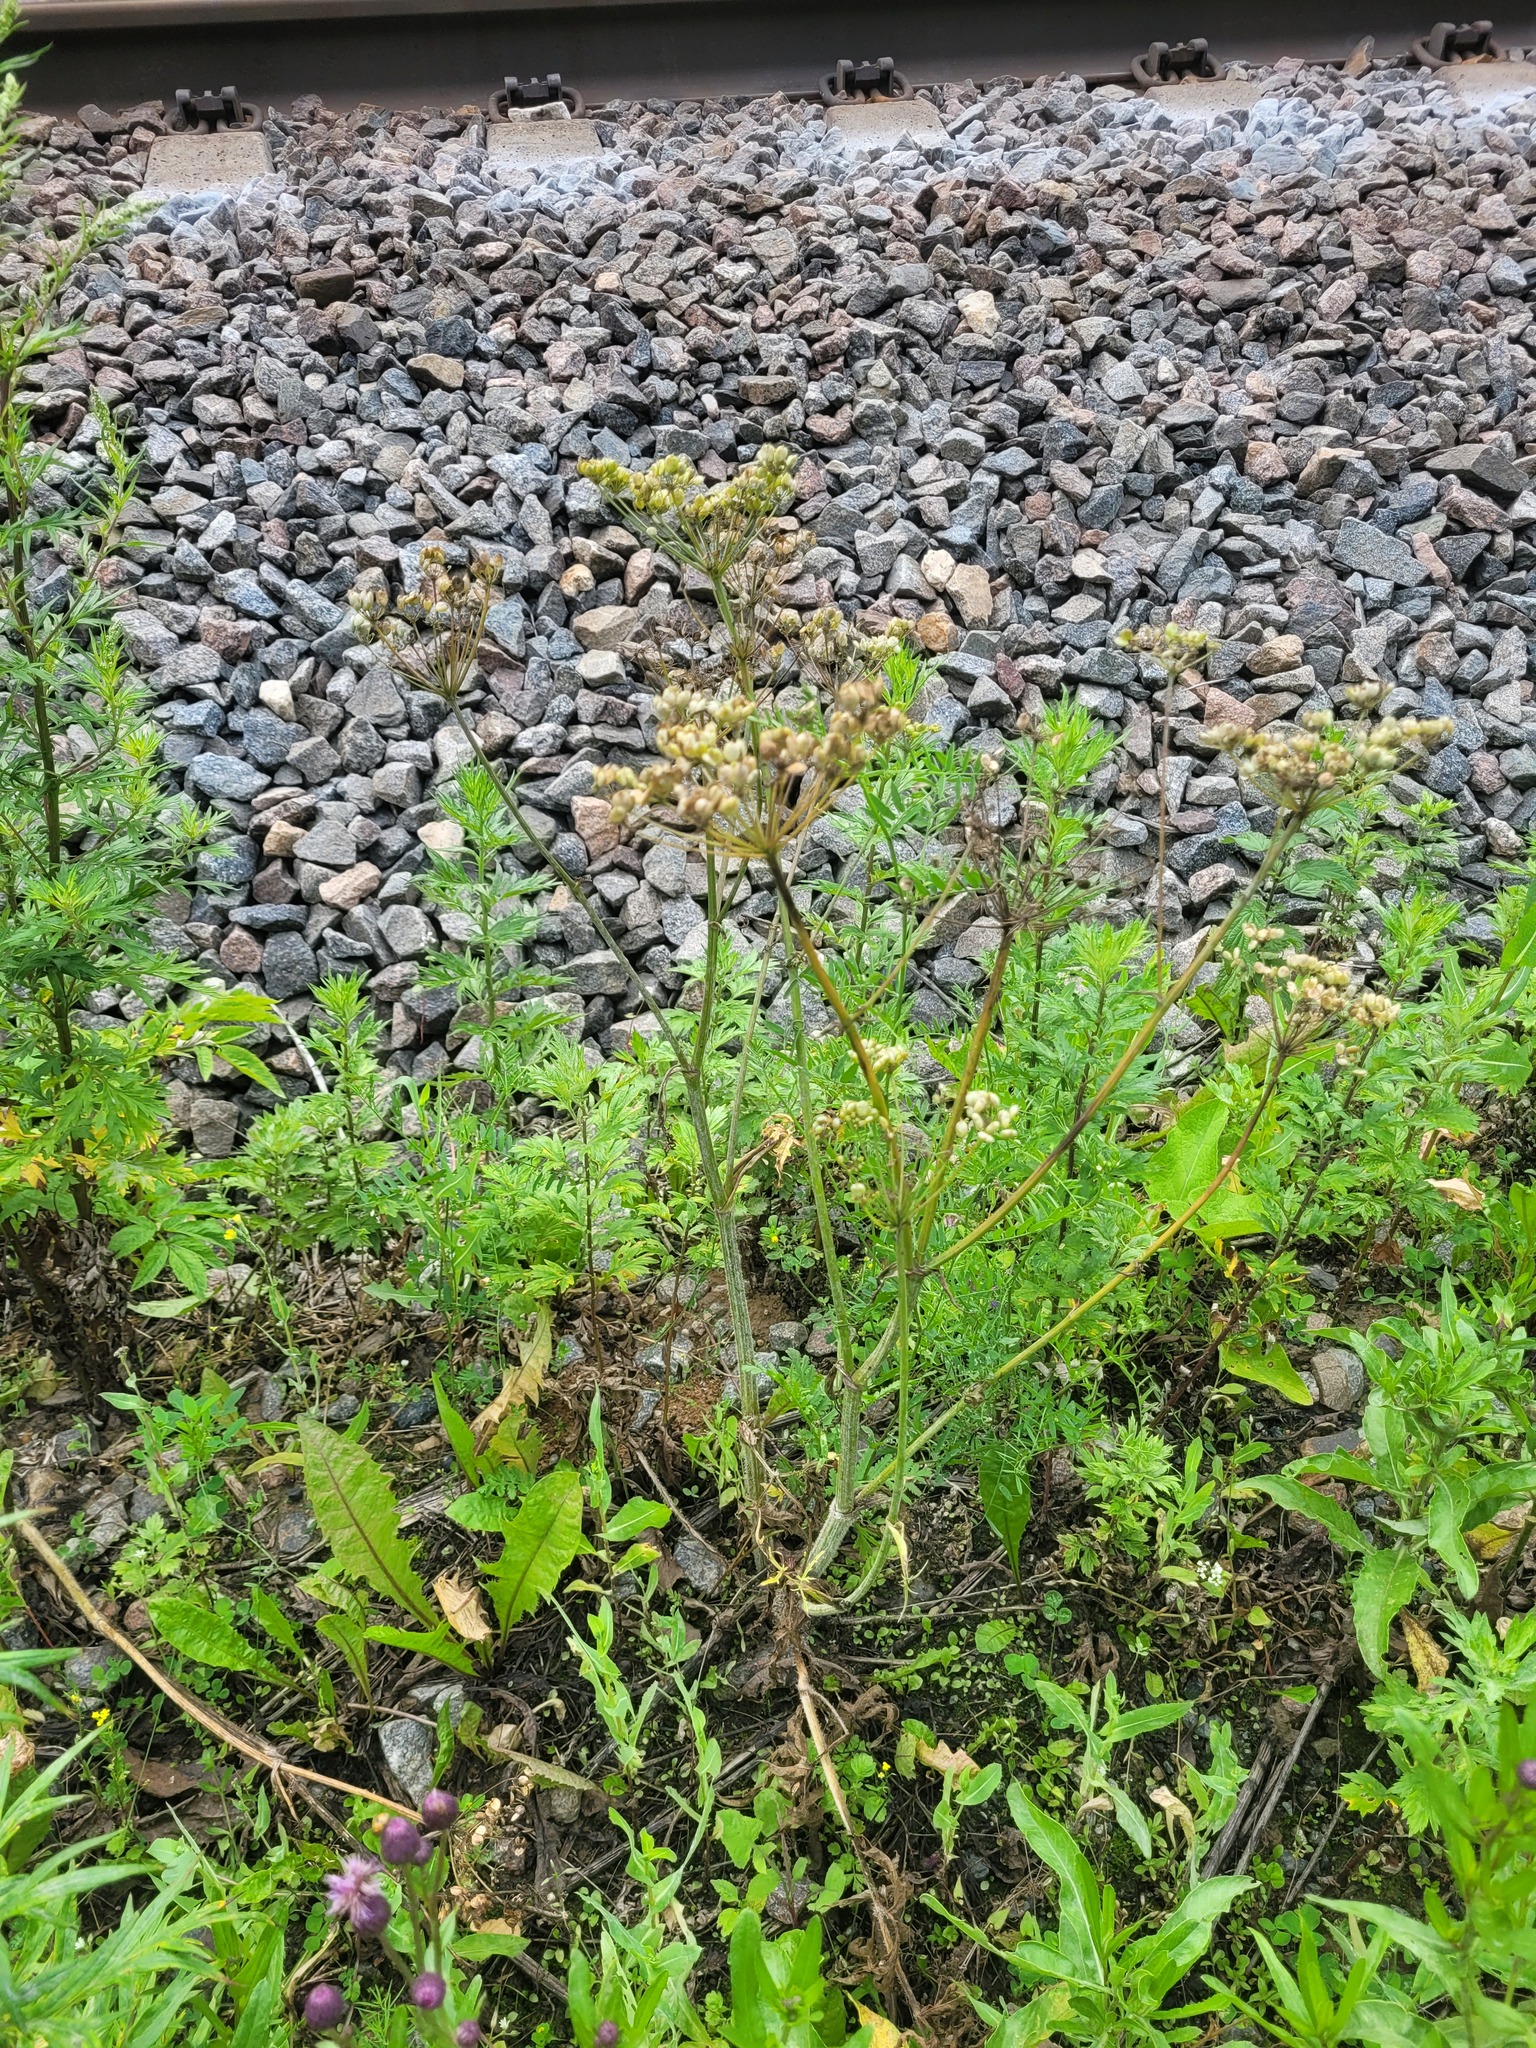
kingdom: Plantae
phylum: Tracheophyta
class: Magnoliopsida
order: Apiales
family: Apiaceae
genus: Heracleum
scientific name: Heracleum sphondylium
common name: Hogweed
